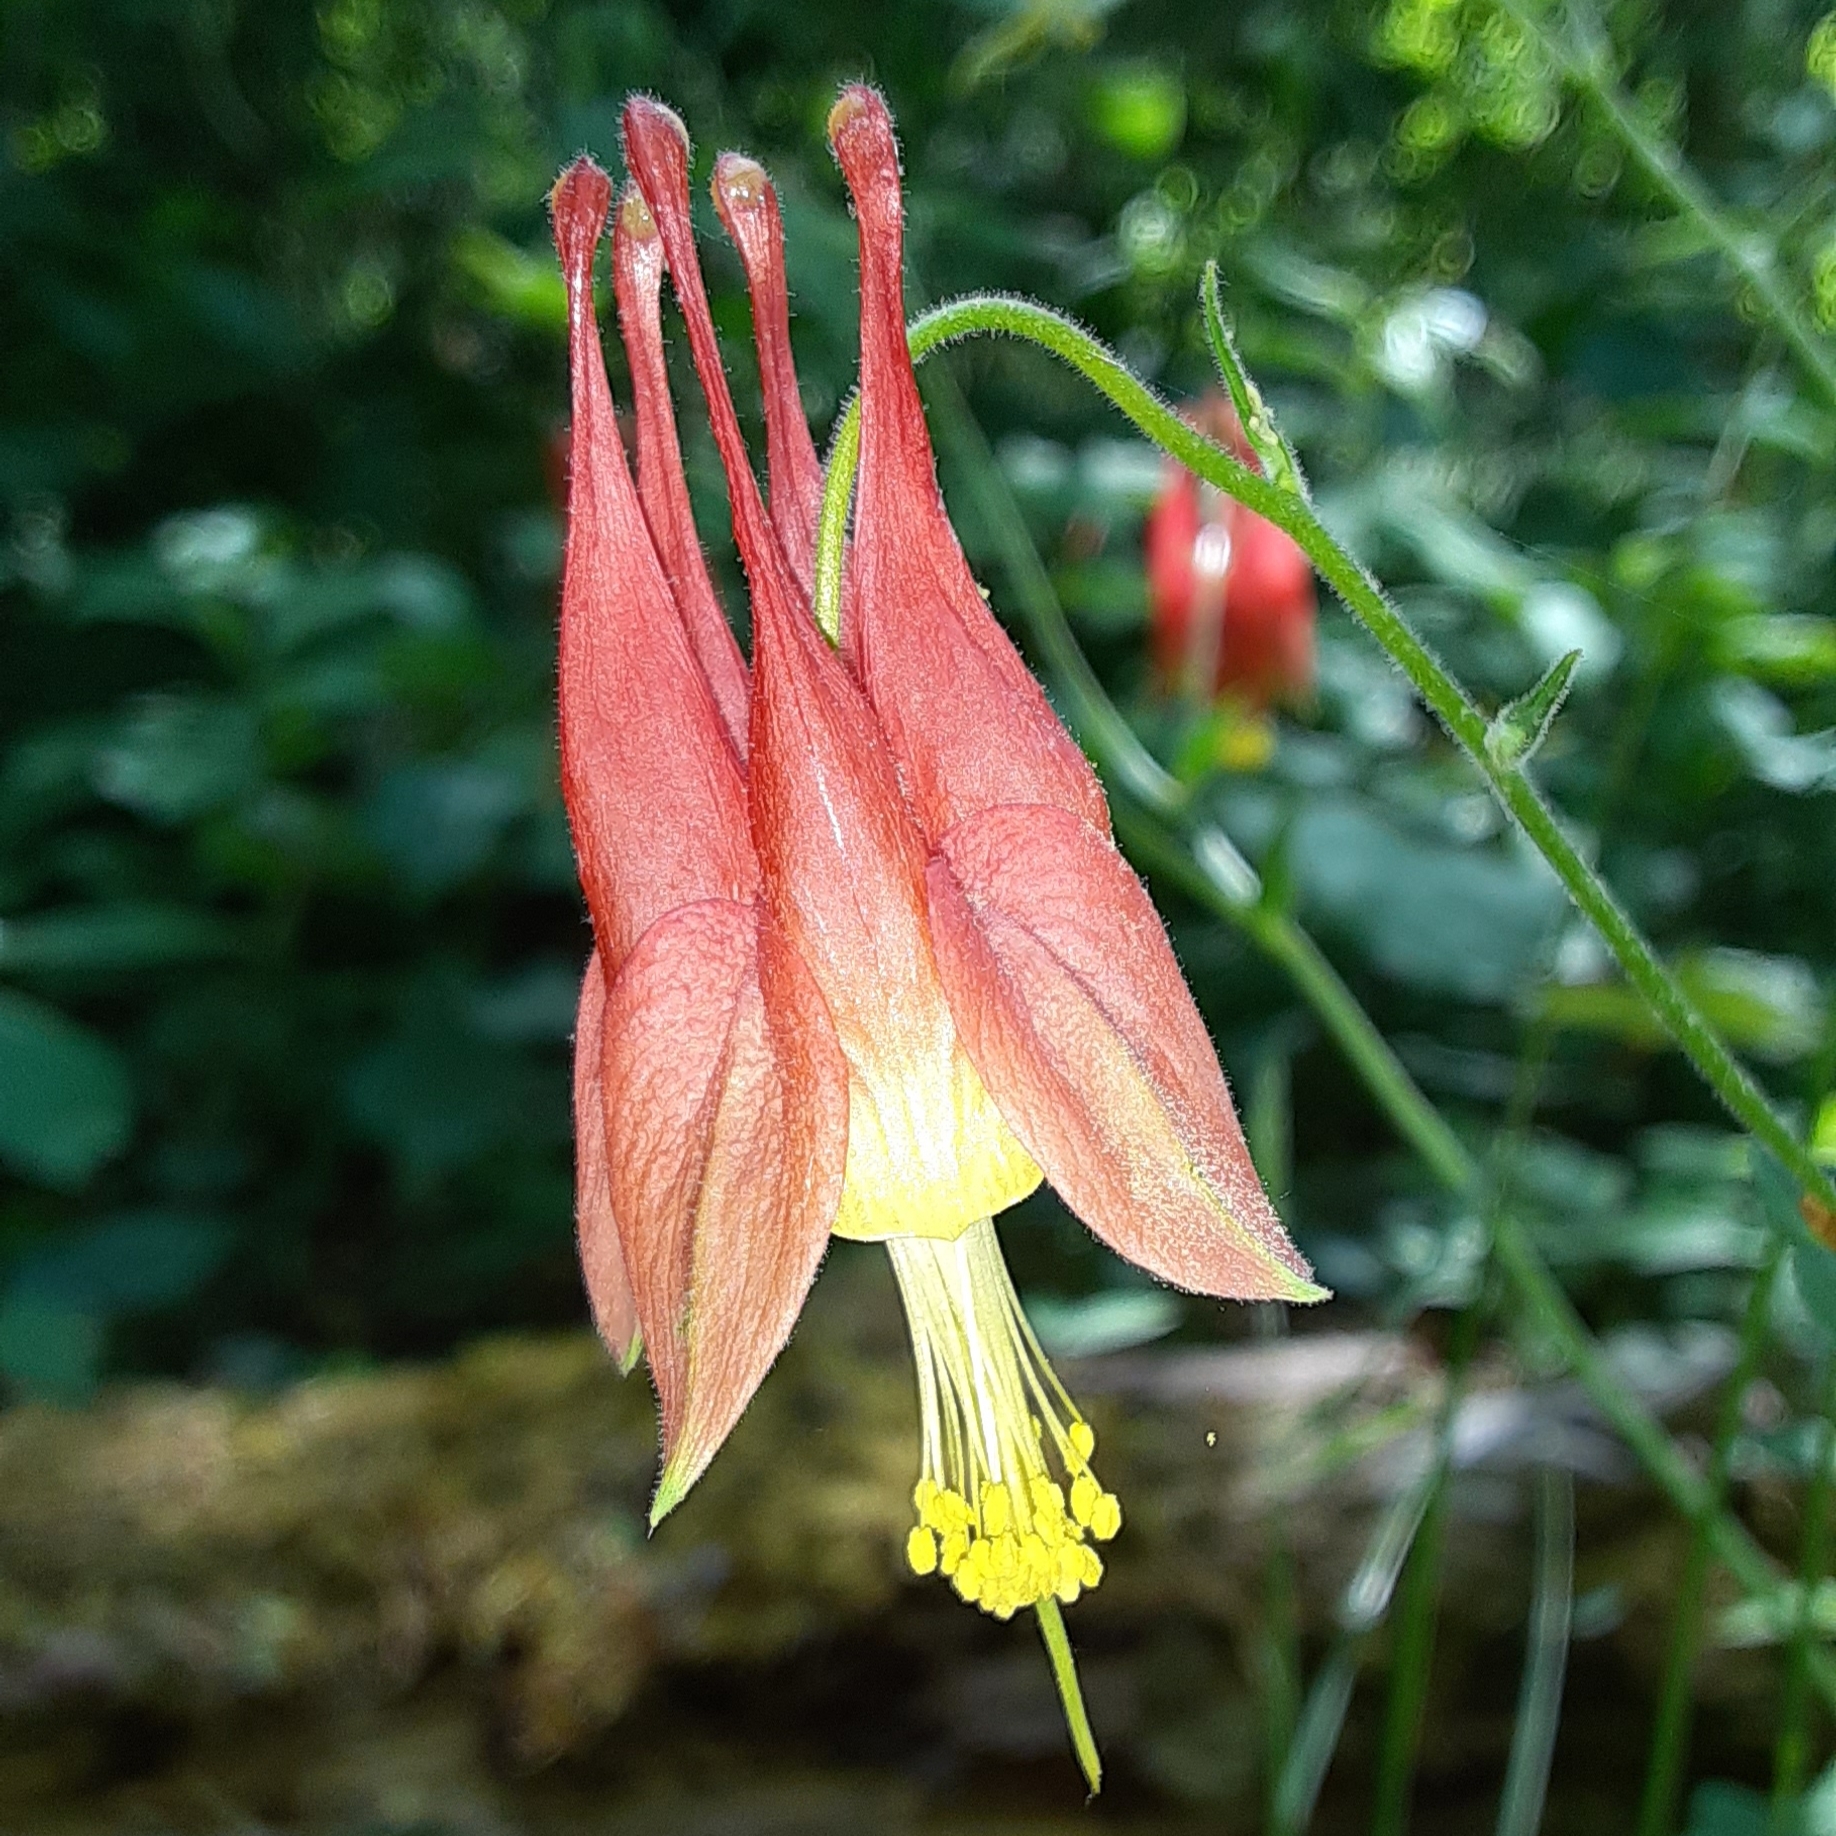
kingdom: Plantae
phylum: Tracheophyta
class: Magnoliopsida
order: Ranunculales
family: Ranunculaceae
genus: Aquilegia
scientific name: Aquilegia canadensis
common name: American columbine
